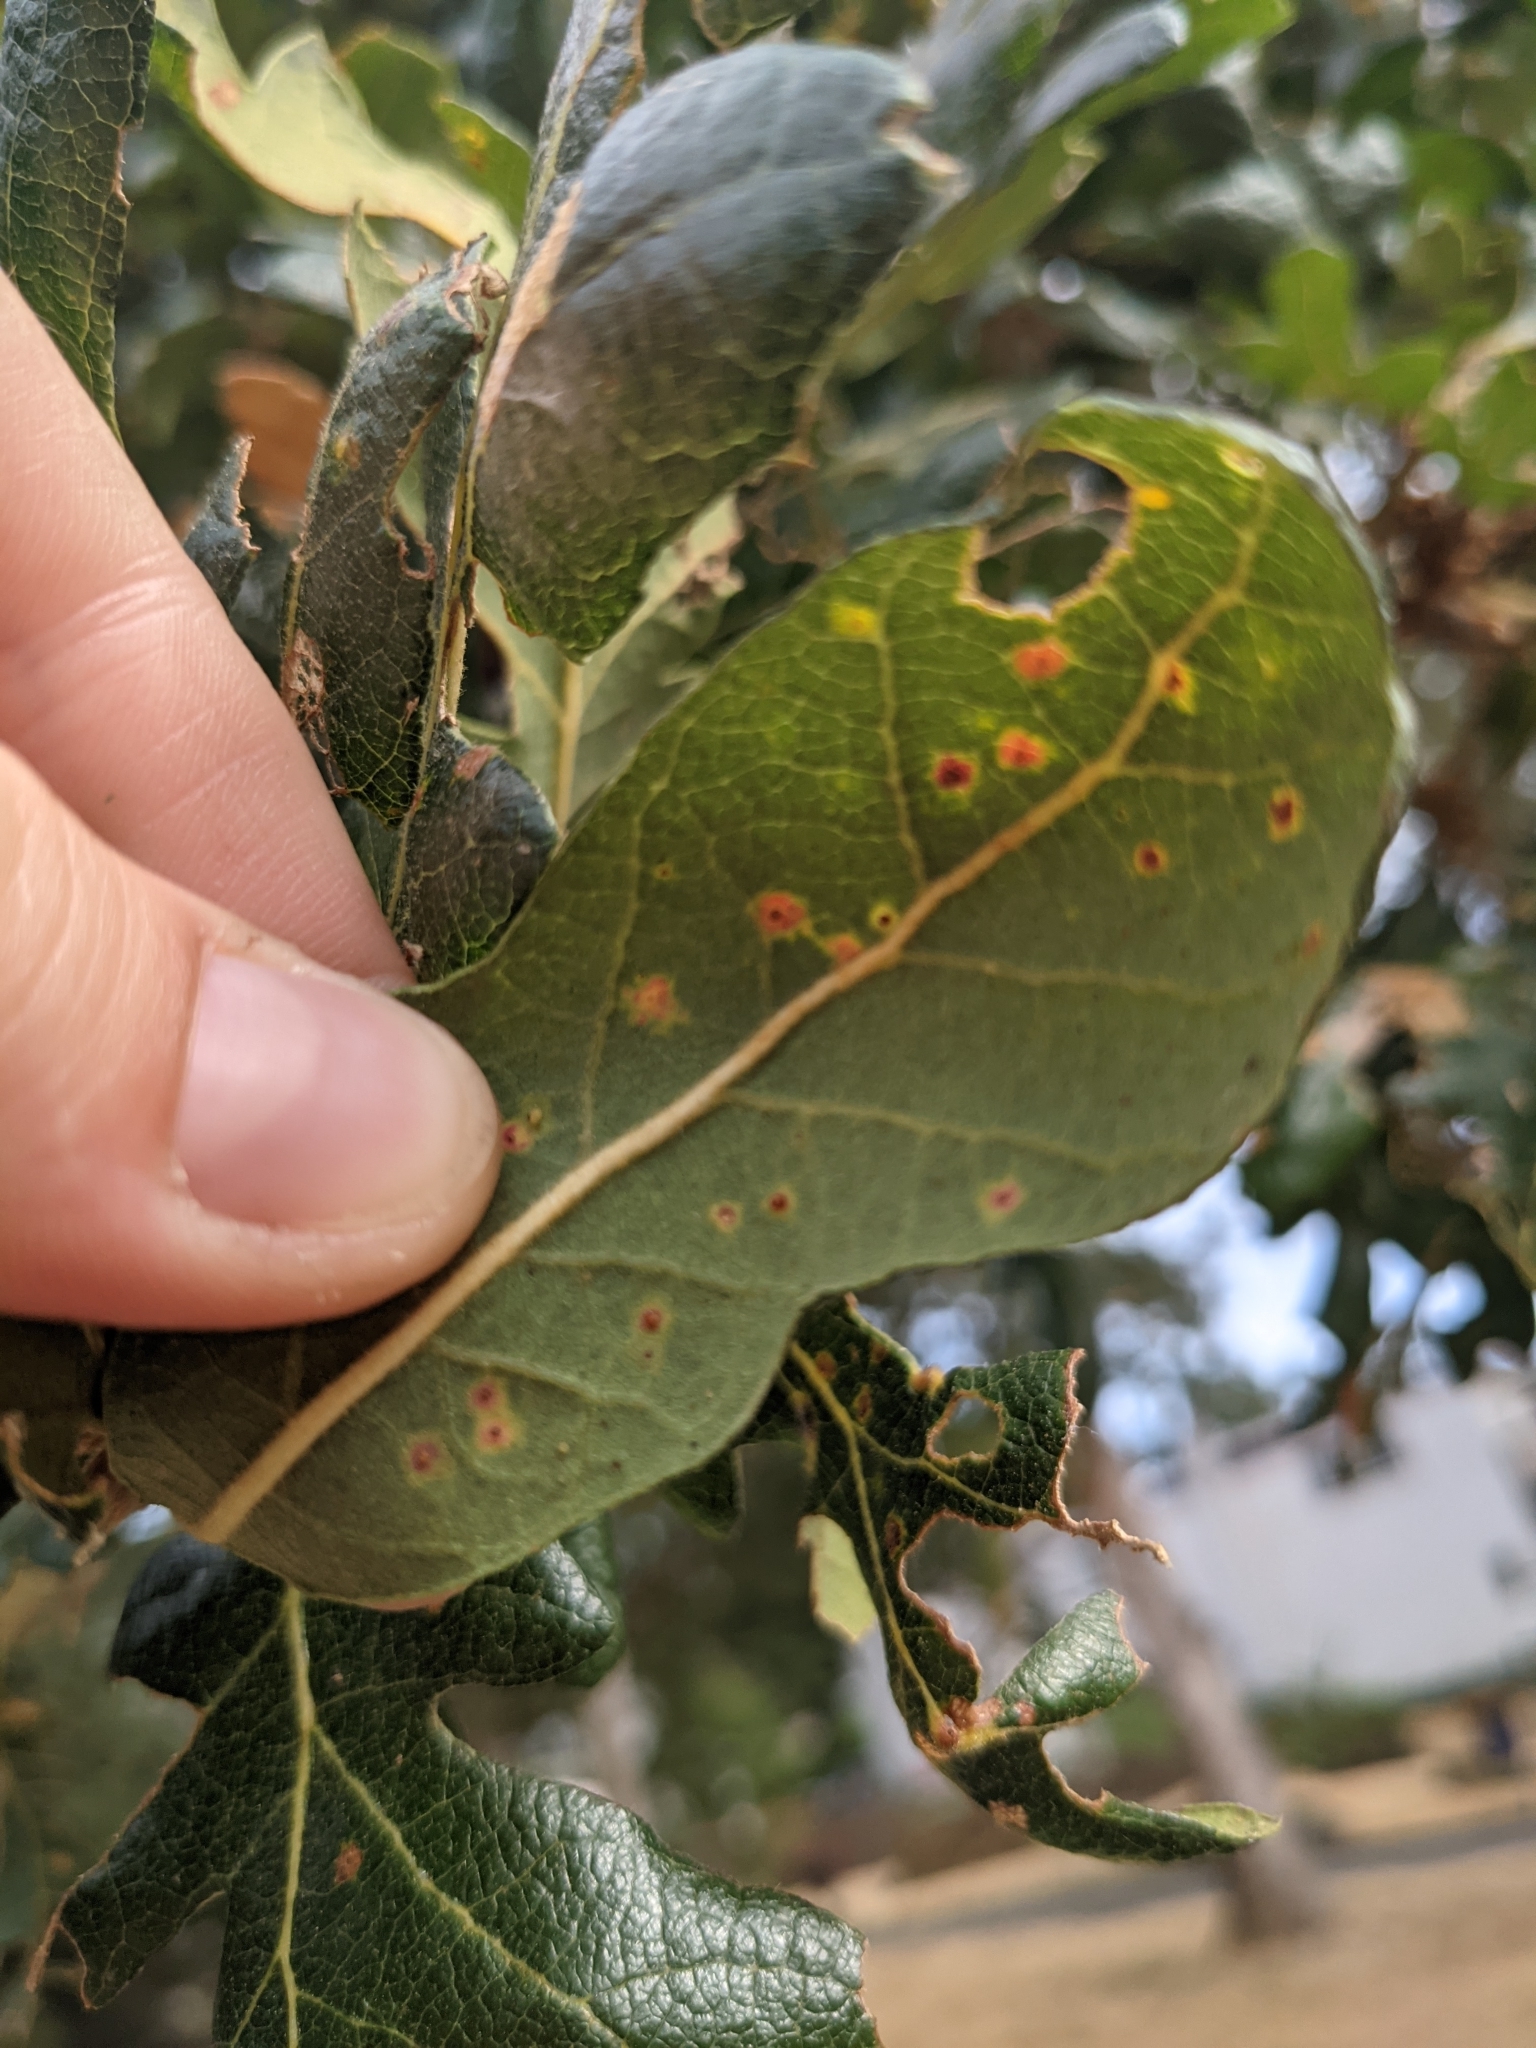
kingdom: Animalia
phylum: Arthropoda
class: Insecta
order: Hymenoptera
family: Cynipidae
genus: Neuroterus
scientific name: Neuroterus saltarius
